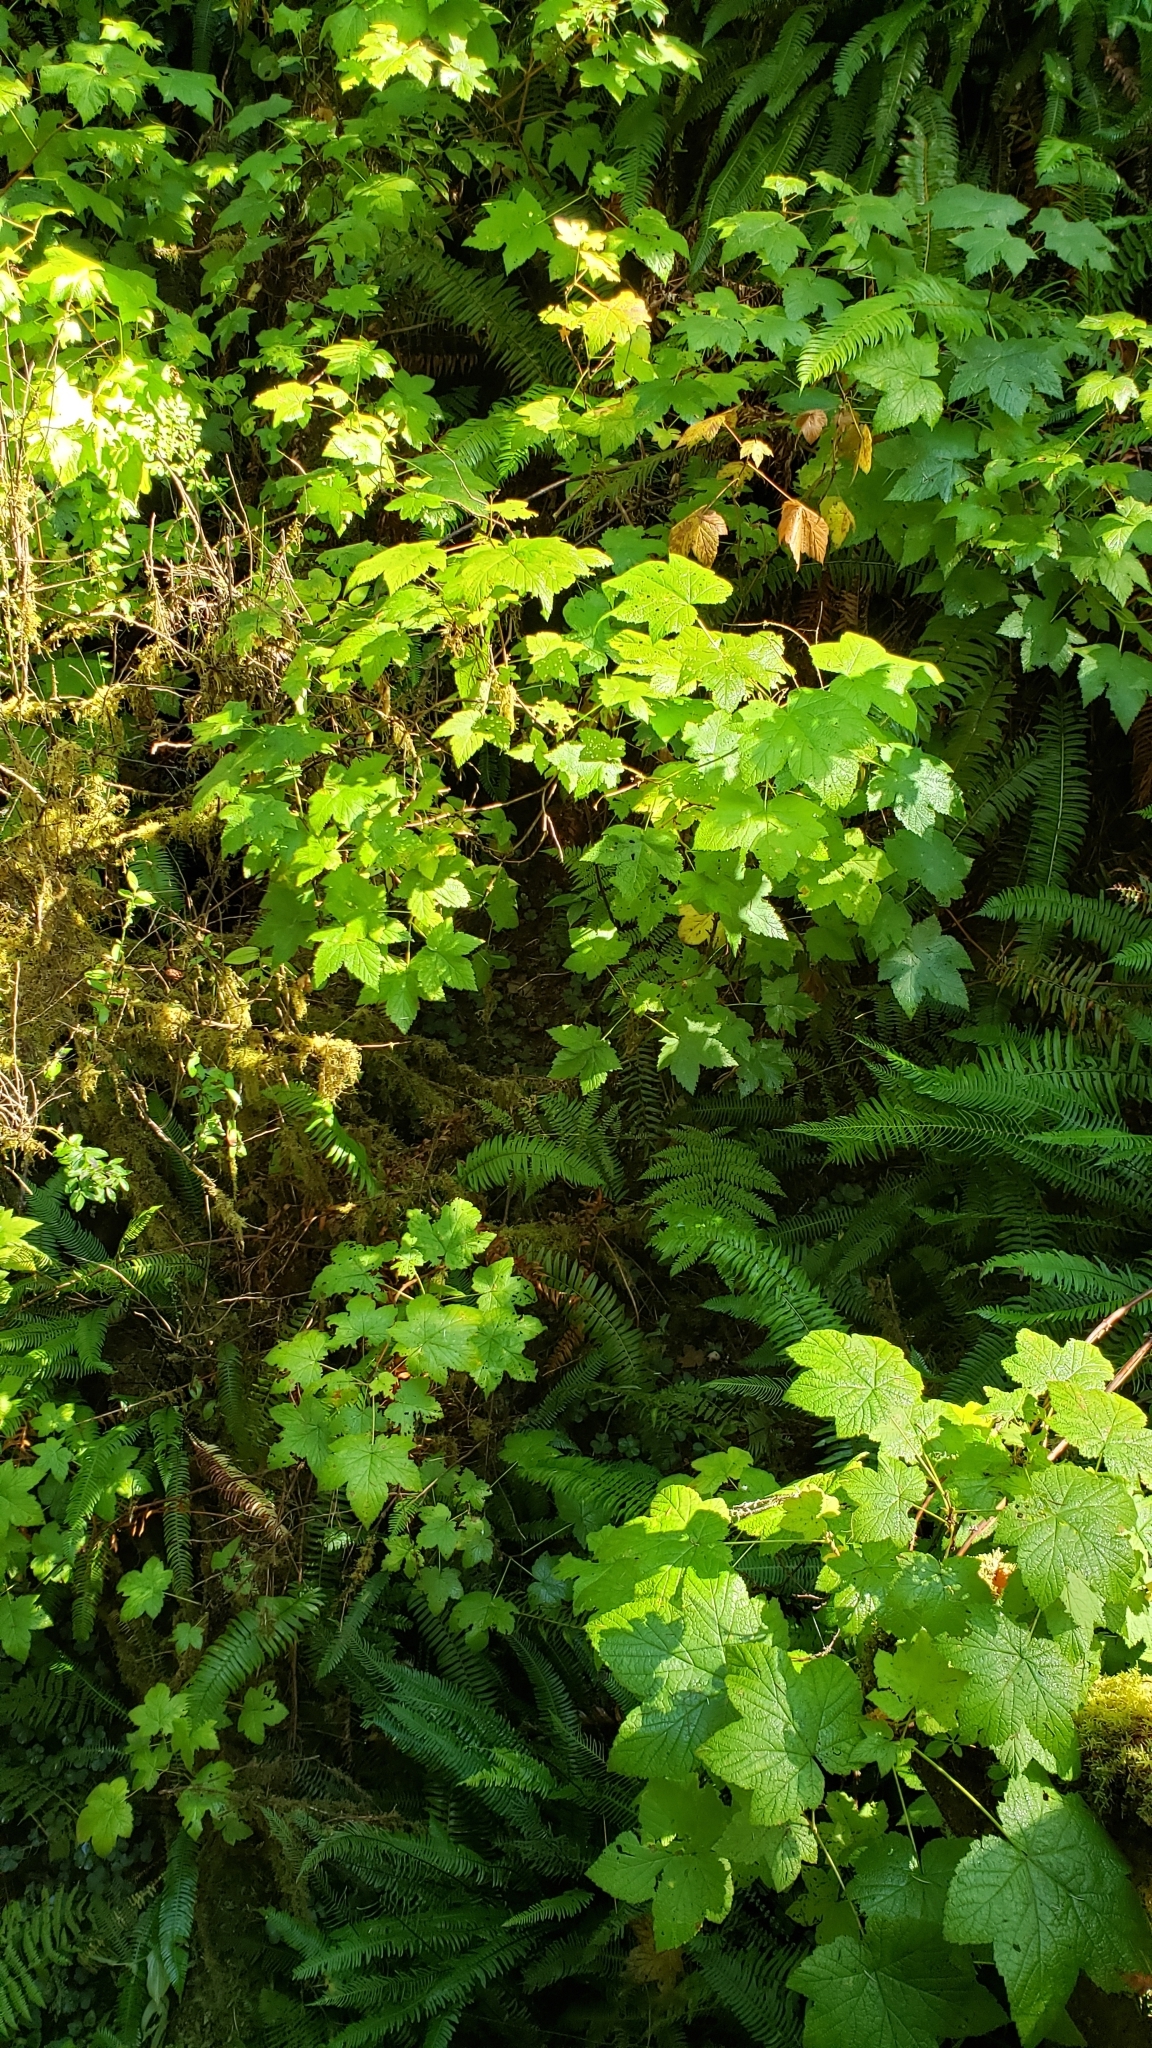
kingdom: Plantae
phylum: Tracheophyta
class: Magnoliopsida
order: Saxifragales
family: Grossulariaceae
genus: Ribes
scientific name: Ribes bracteosum
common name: California black currant
